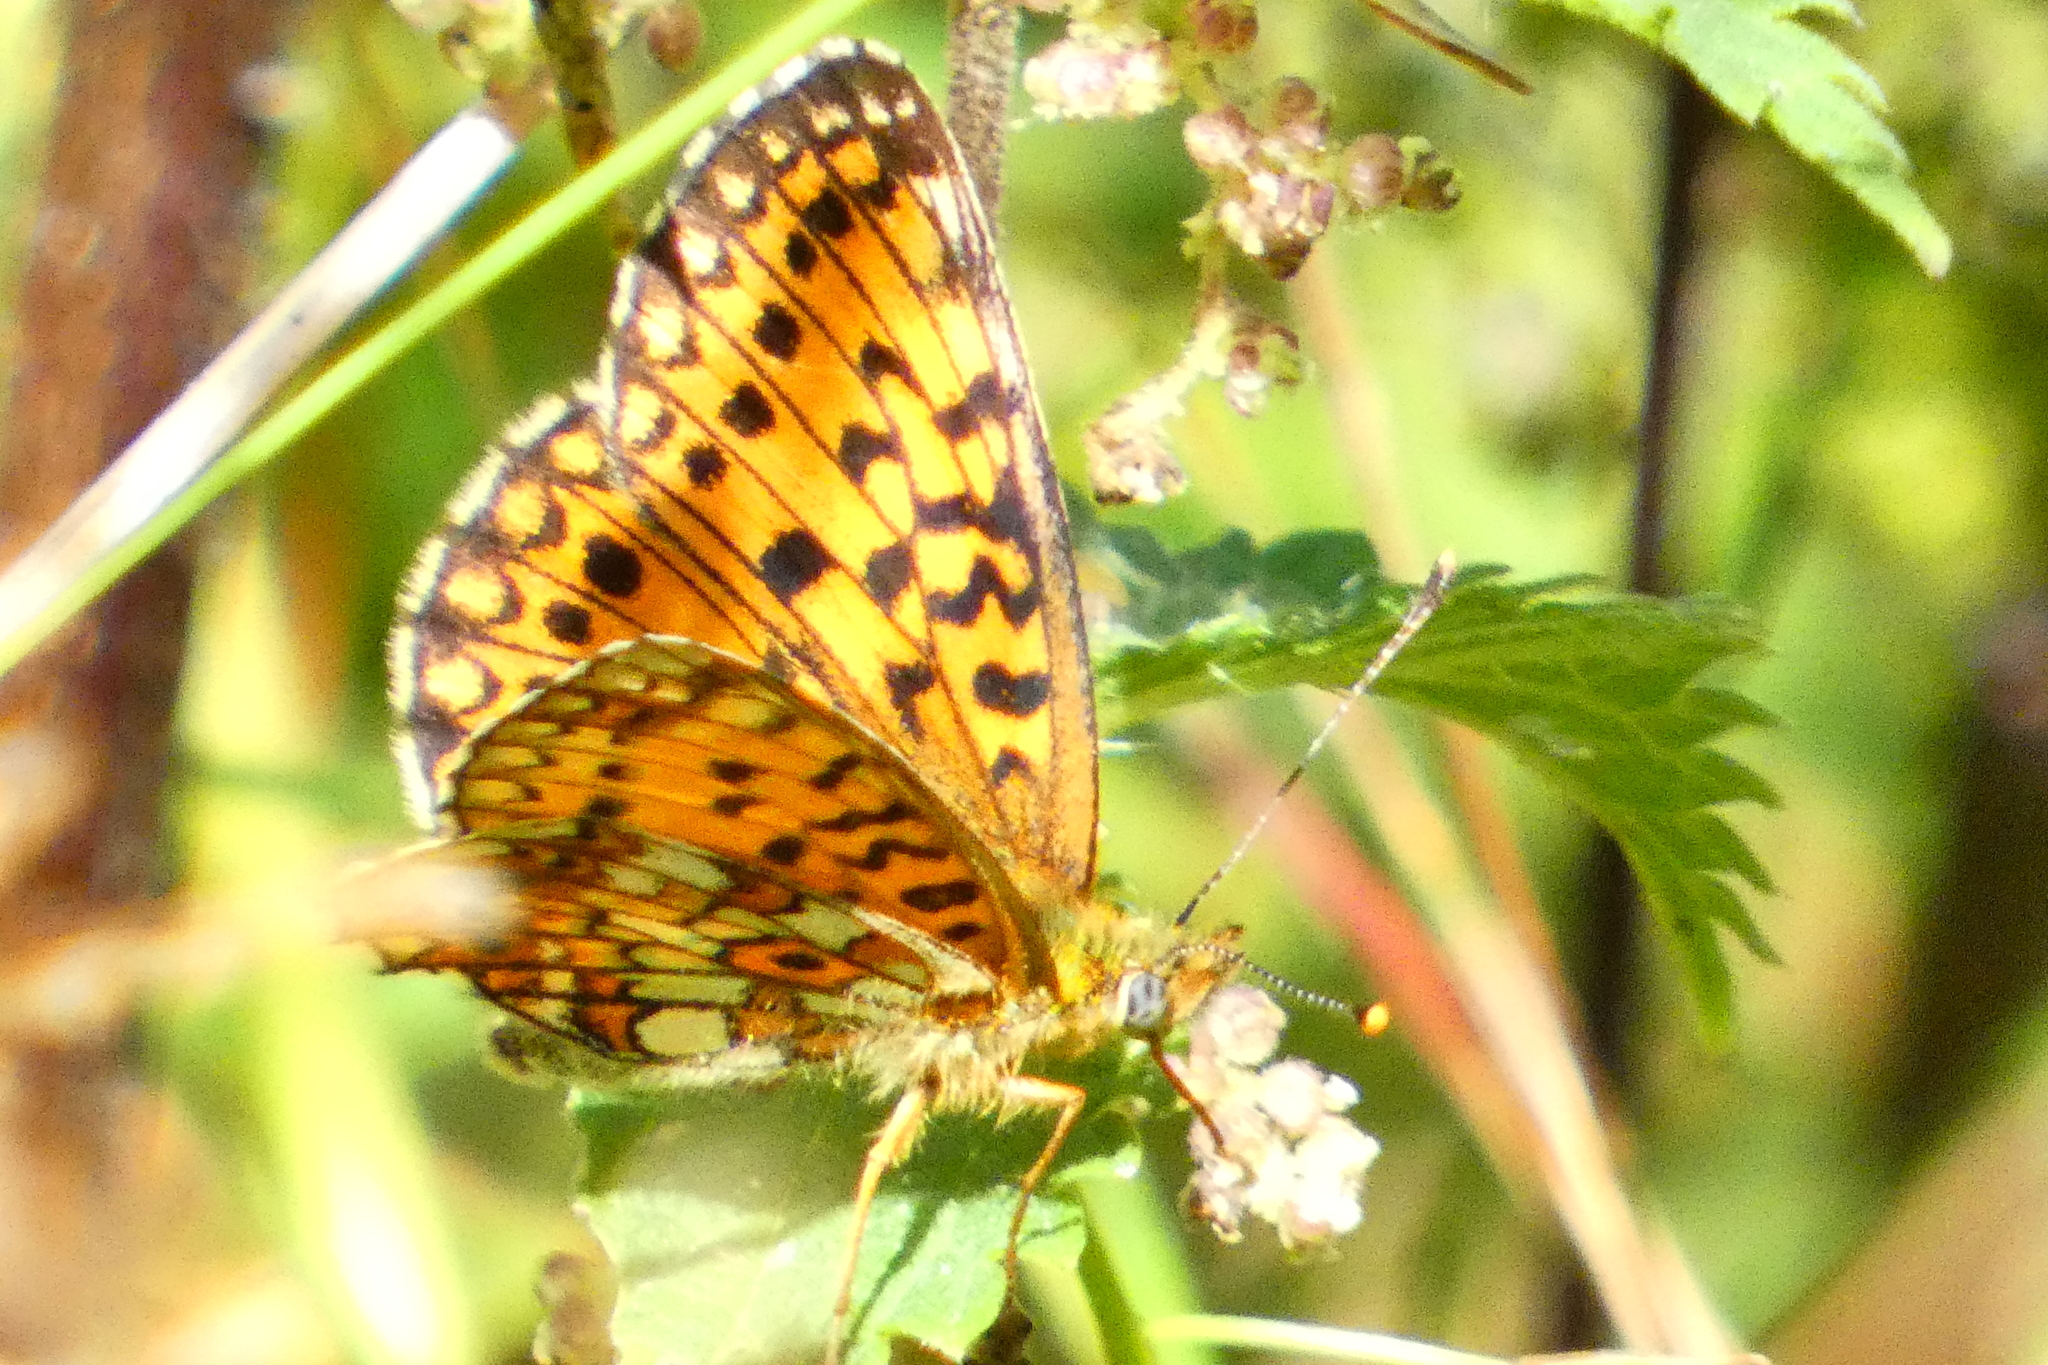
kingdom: Animalia
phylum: Arthropoda
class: Insecta
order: Lepidoptera
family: Nymphalidae
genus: Boloria
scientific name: Boloria selene
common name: Small pearl-bordered fritillary
